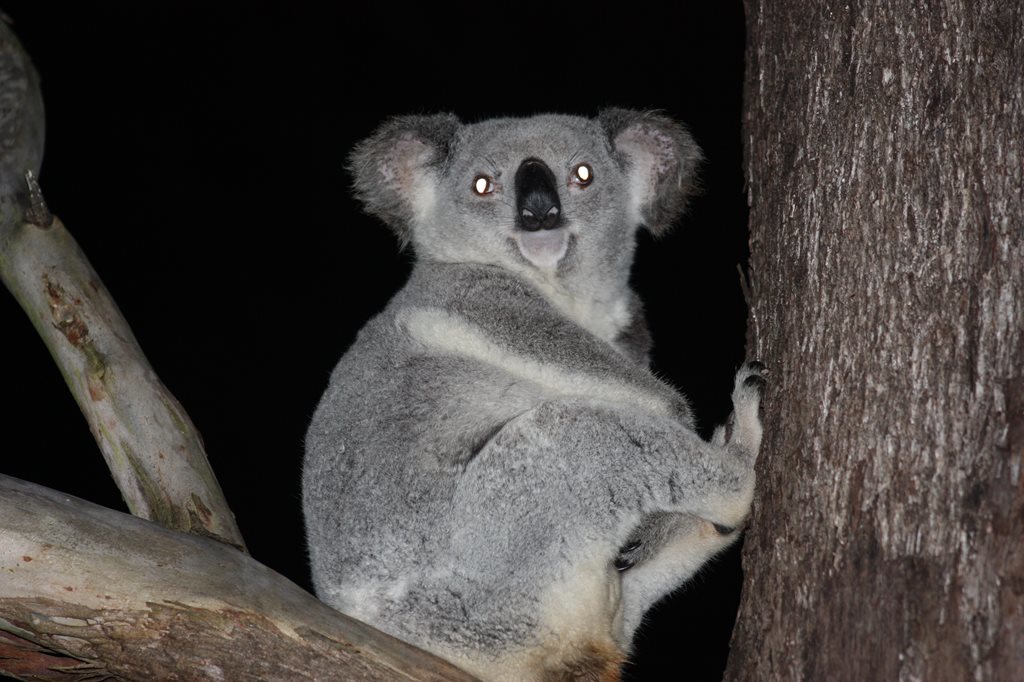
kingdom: Animalia
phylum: Chordata
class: Mammalia
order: Diprotodontia
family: Phascolarctidae
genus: Phascolarctos
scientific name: Phascolarctos cinereus
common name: Koala
